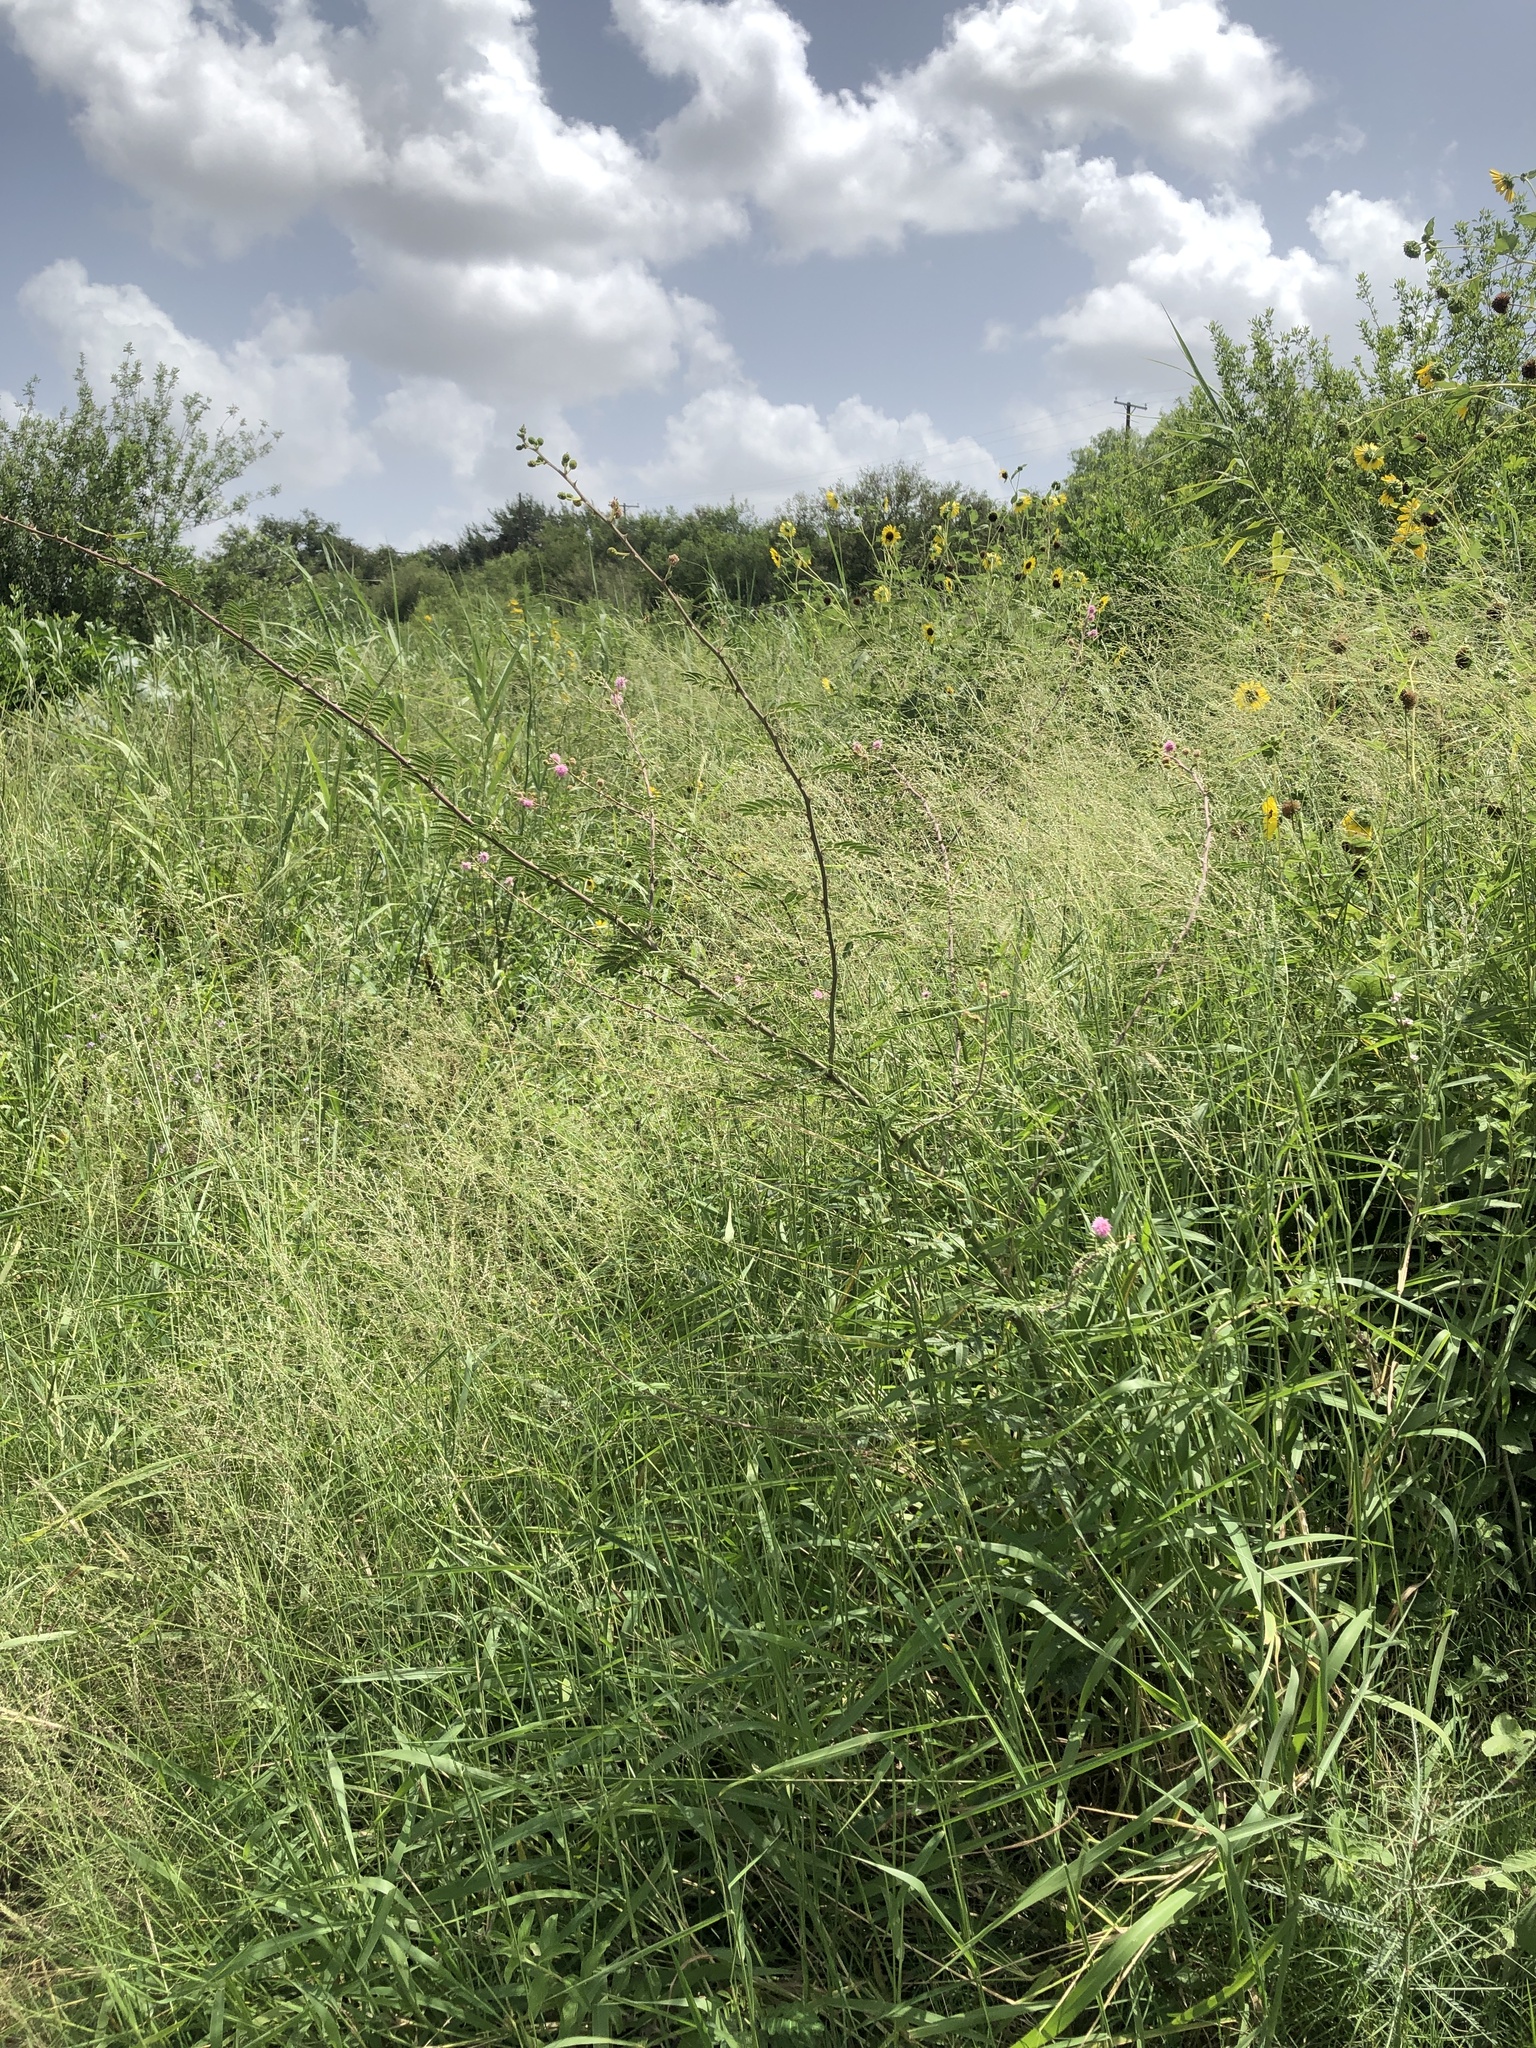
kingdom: Plantae
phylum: Tracheophyta
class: Magnoliopsida
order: Fabales
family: Fabaceae
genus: Mimosa
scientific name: Mimosa pigra
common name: Black mimosa
